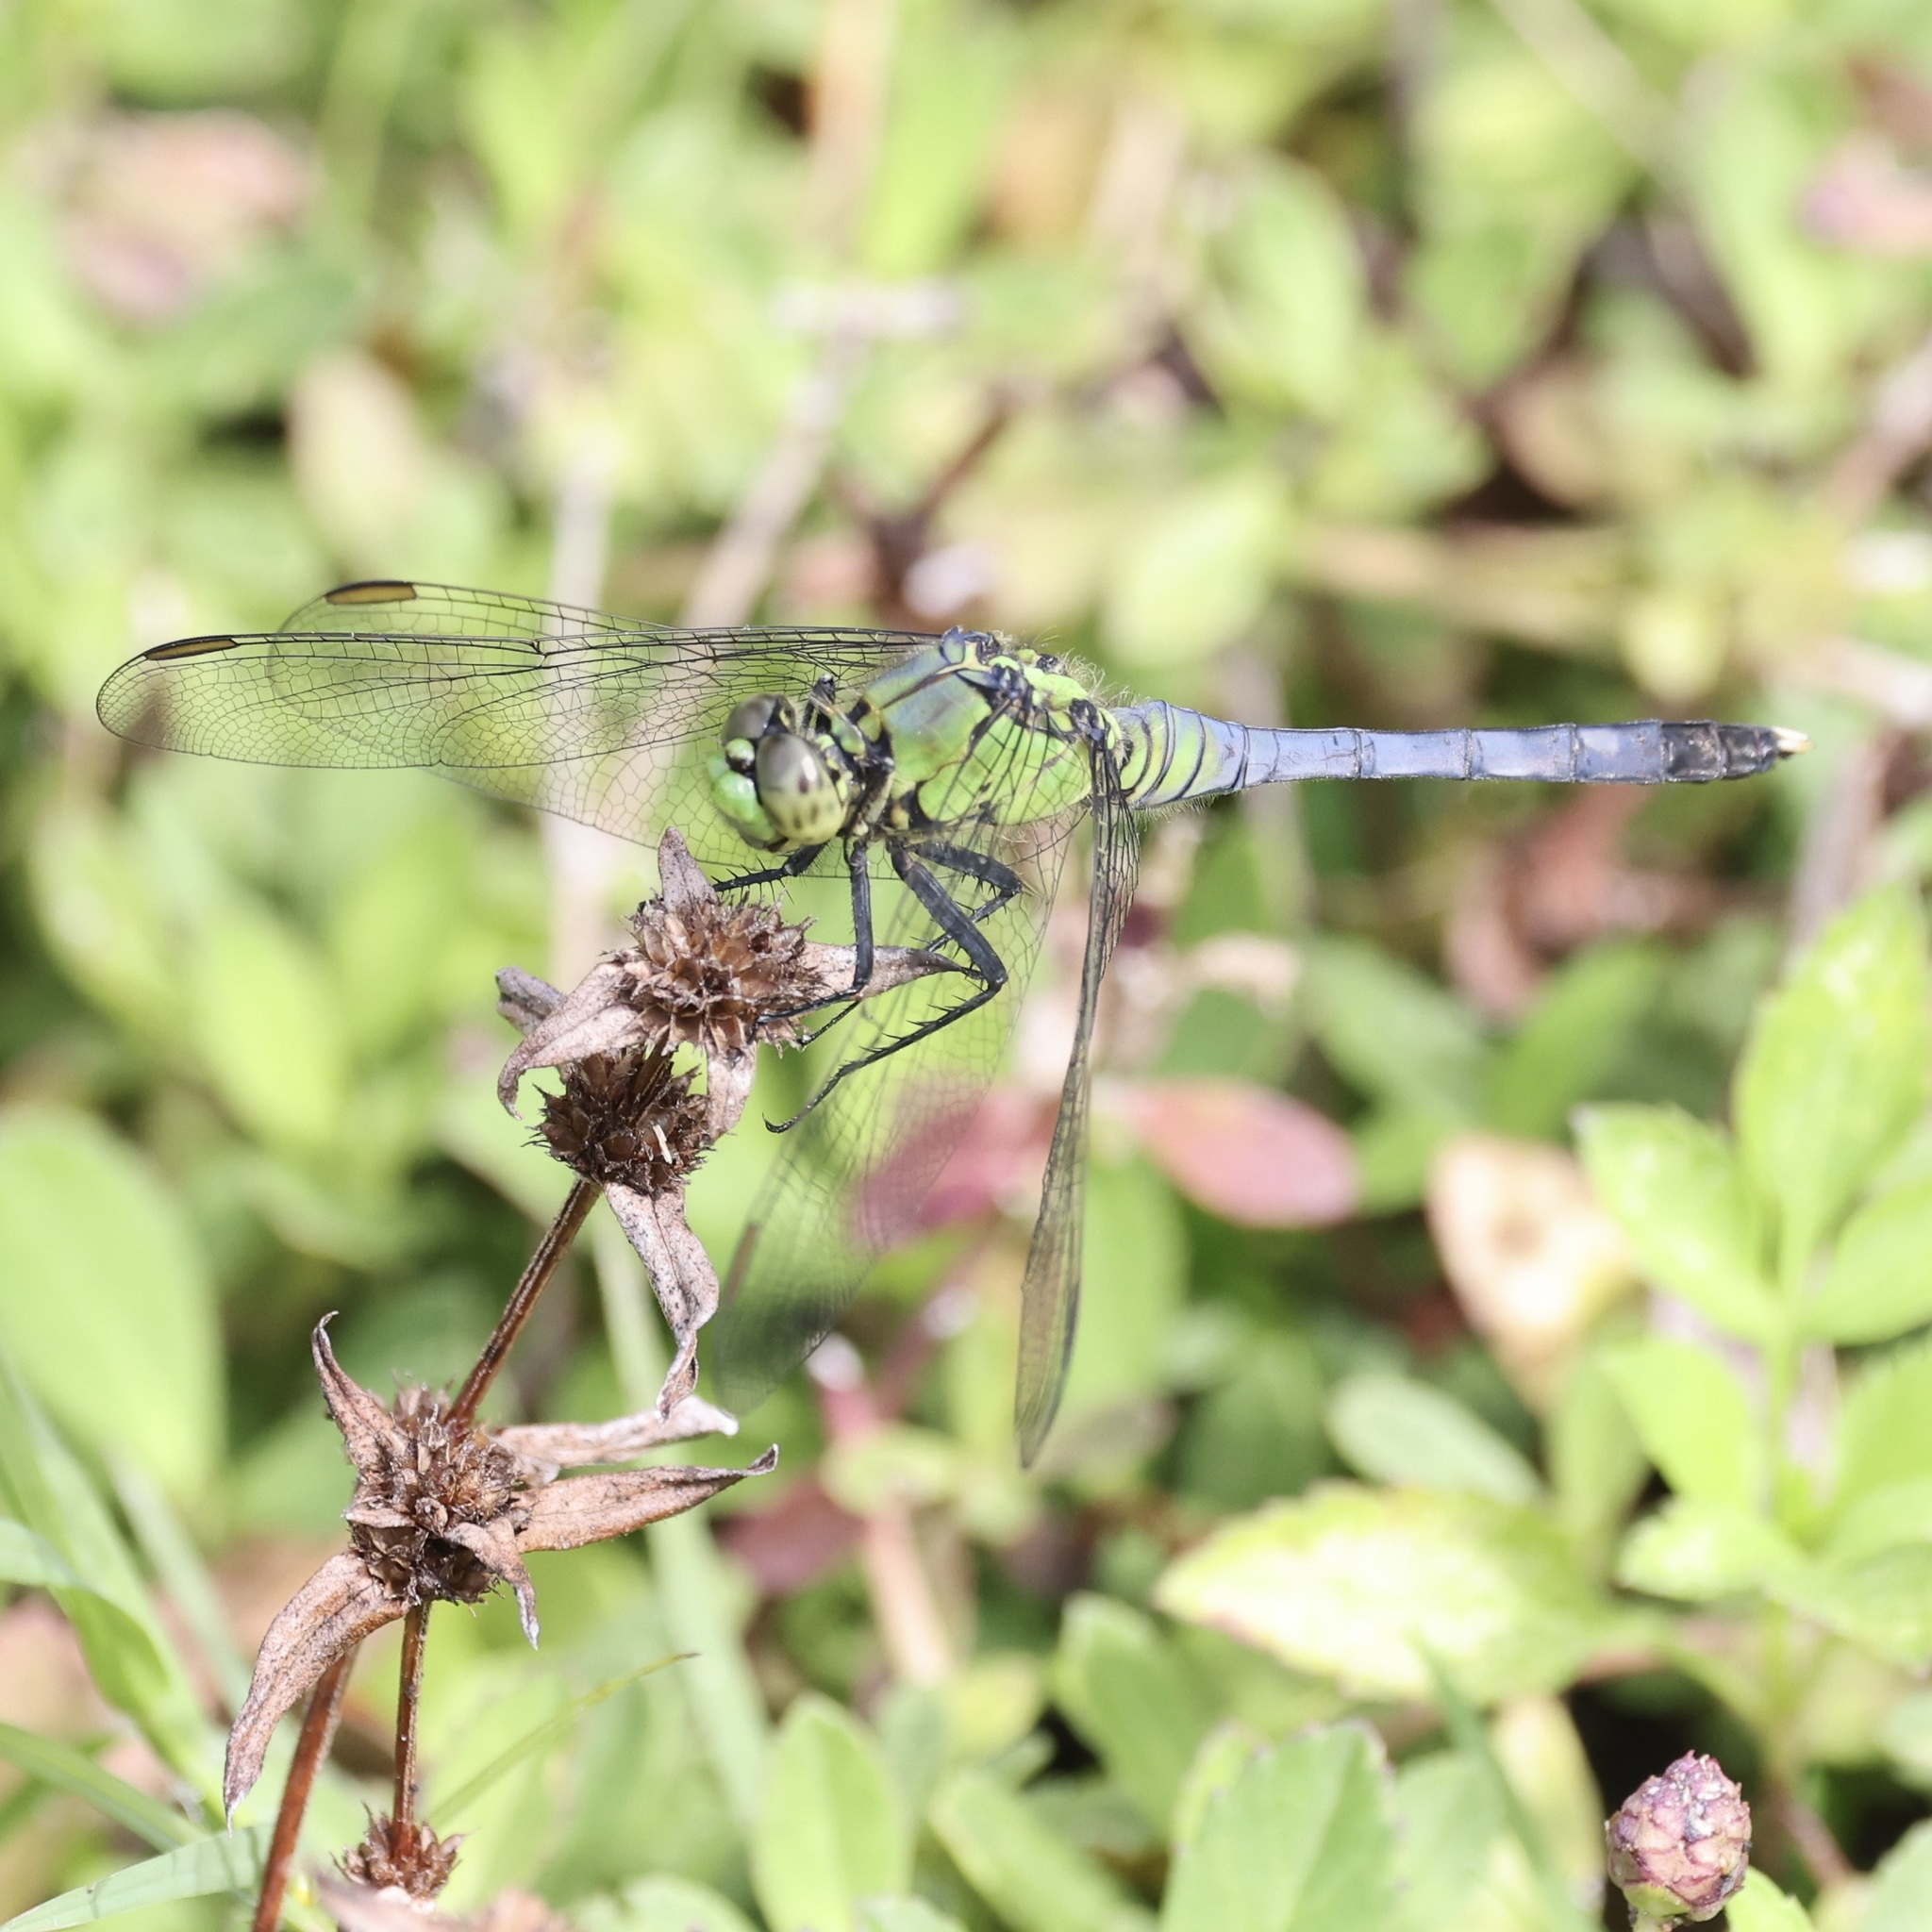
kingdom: Animalia
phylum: Arthropoda
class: Insecta
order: Odonata
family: Libellulidae
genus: Erythemis
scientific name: Erythemis simplicicollis
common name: Eastern pondhawk
